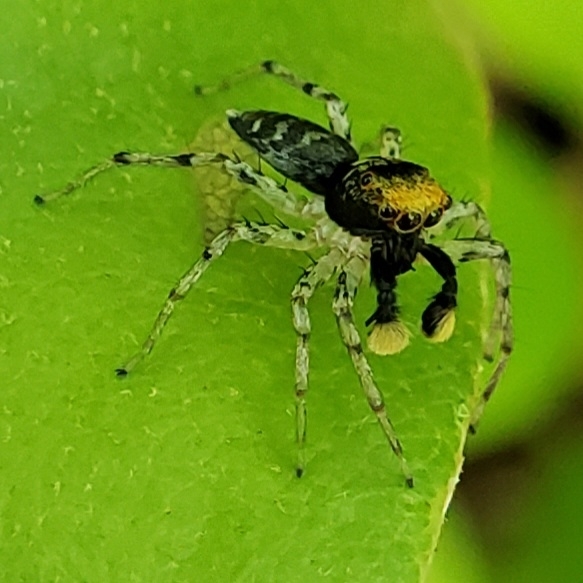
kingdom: Animalia
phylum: Arthropoda
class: Arachnida
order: Araneae
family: Salticidae
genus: Maevia
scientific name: Maevia
